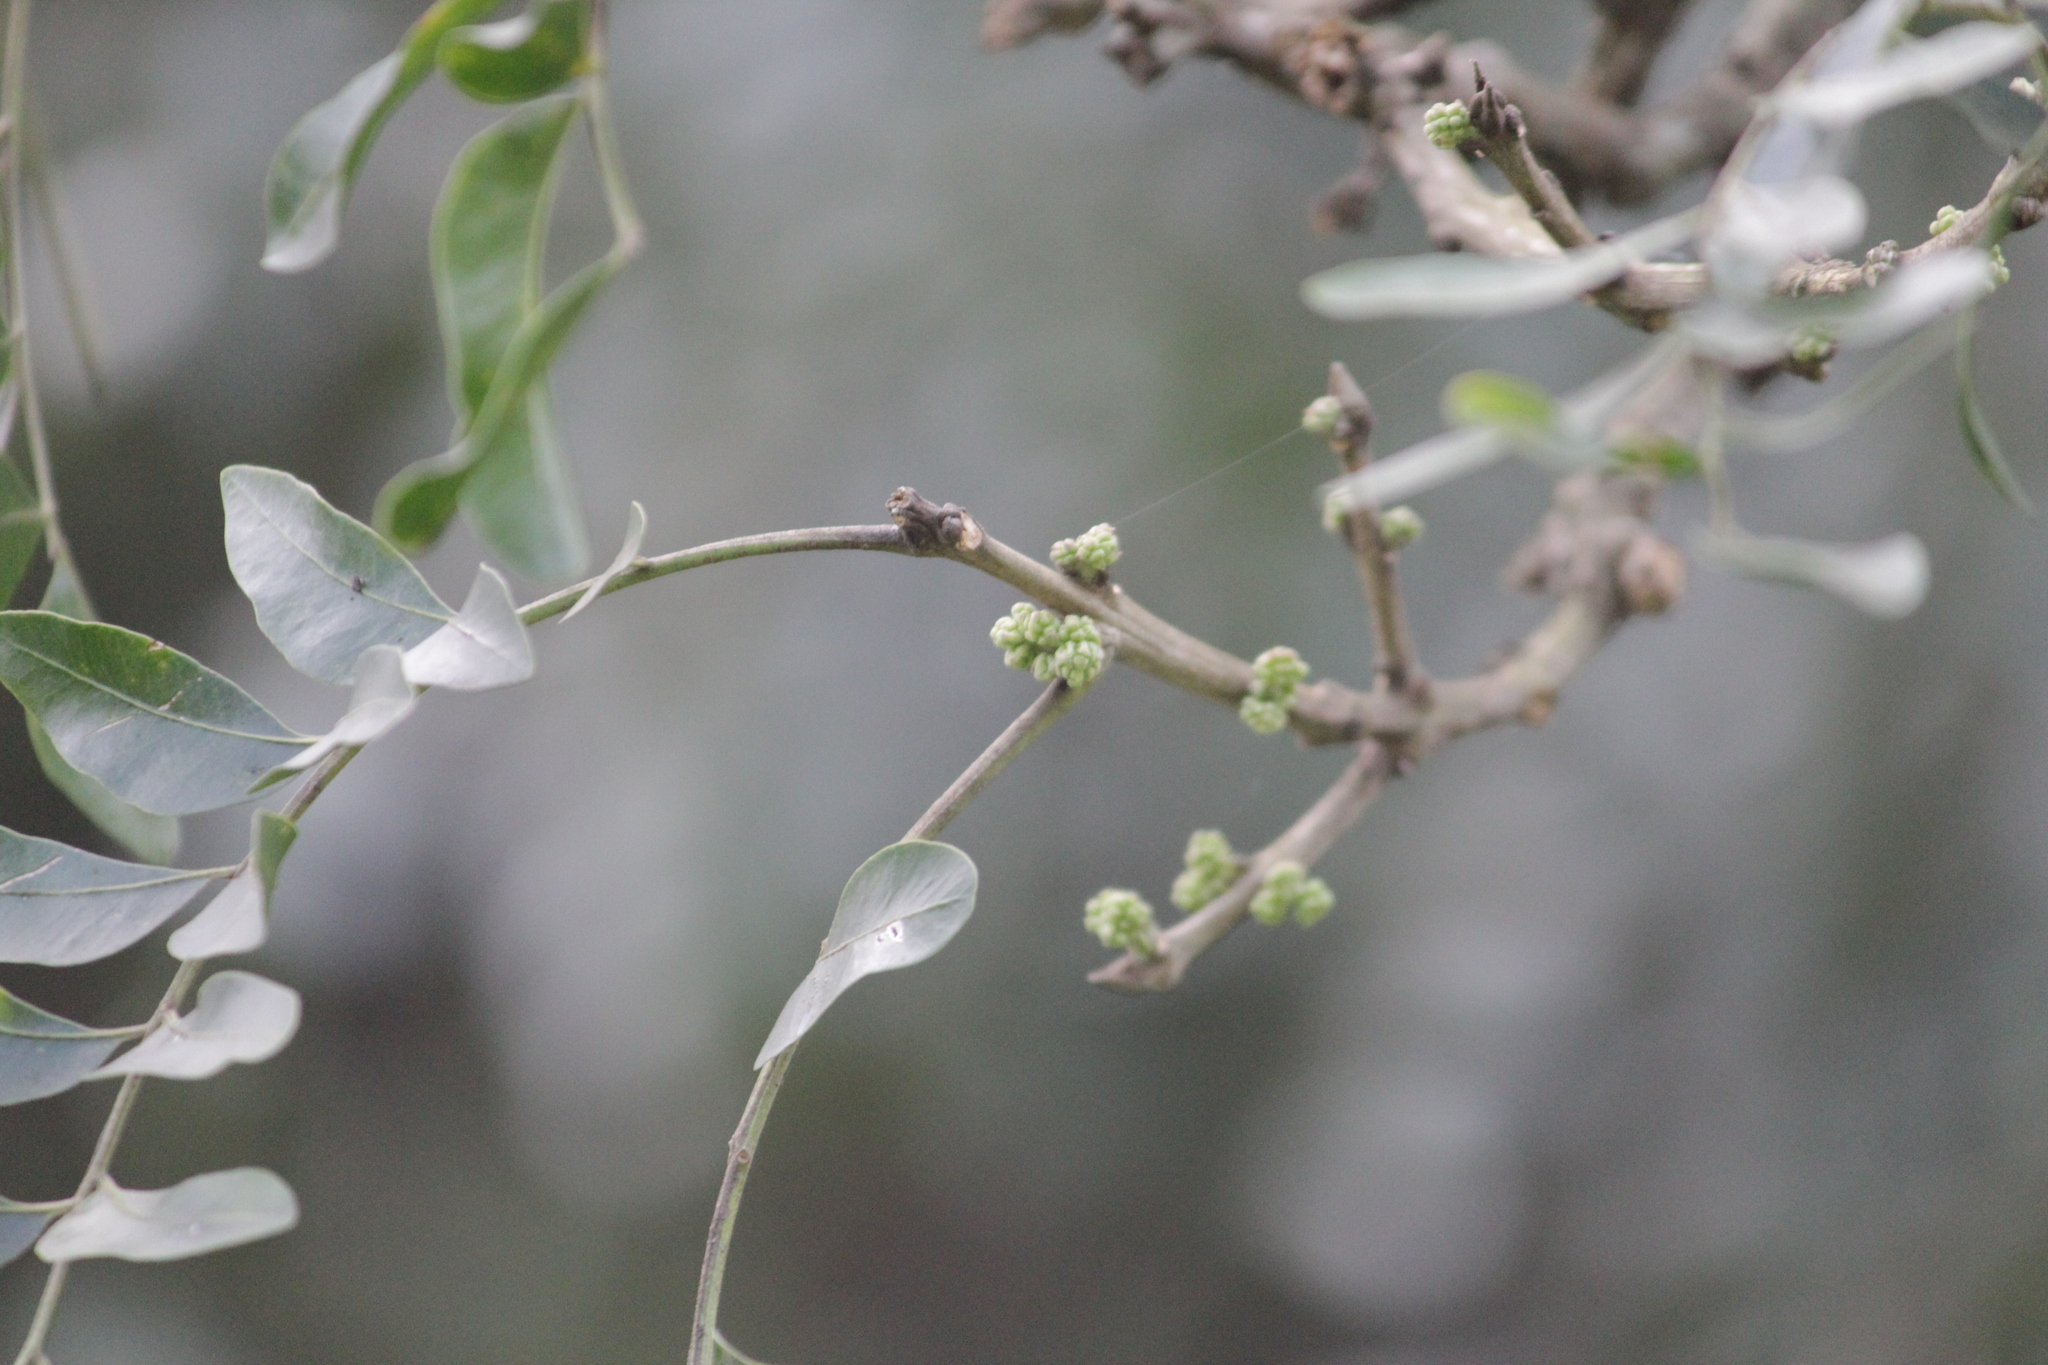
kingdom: Plantae
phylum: Tracheophyta
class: Magnoliopsida
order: Sapindales
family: Rutaceae
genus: Ptaeroxylon
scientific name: Ptaeroxylon obliquum
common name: Sneezewood
